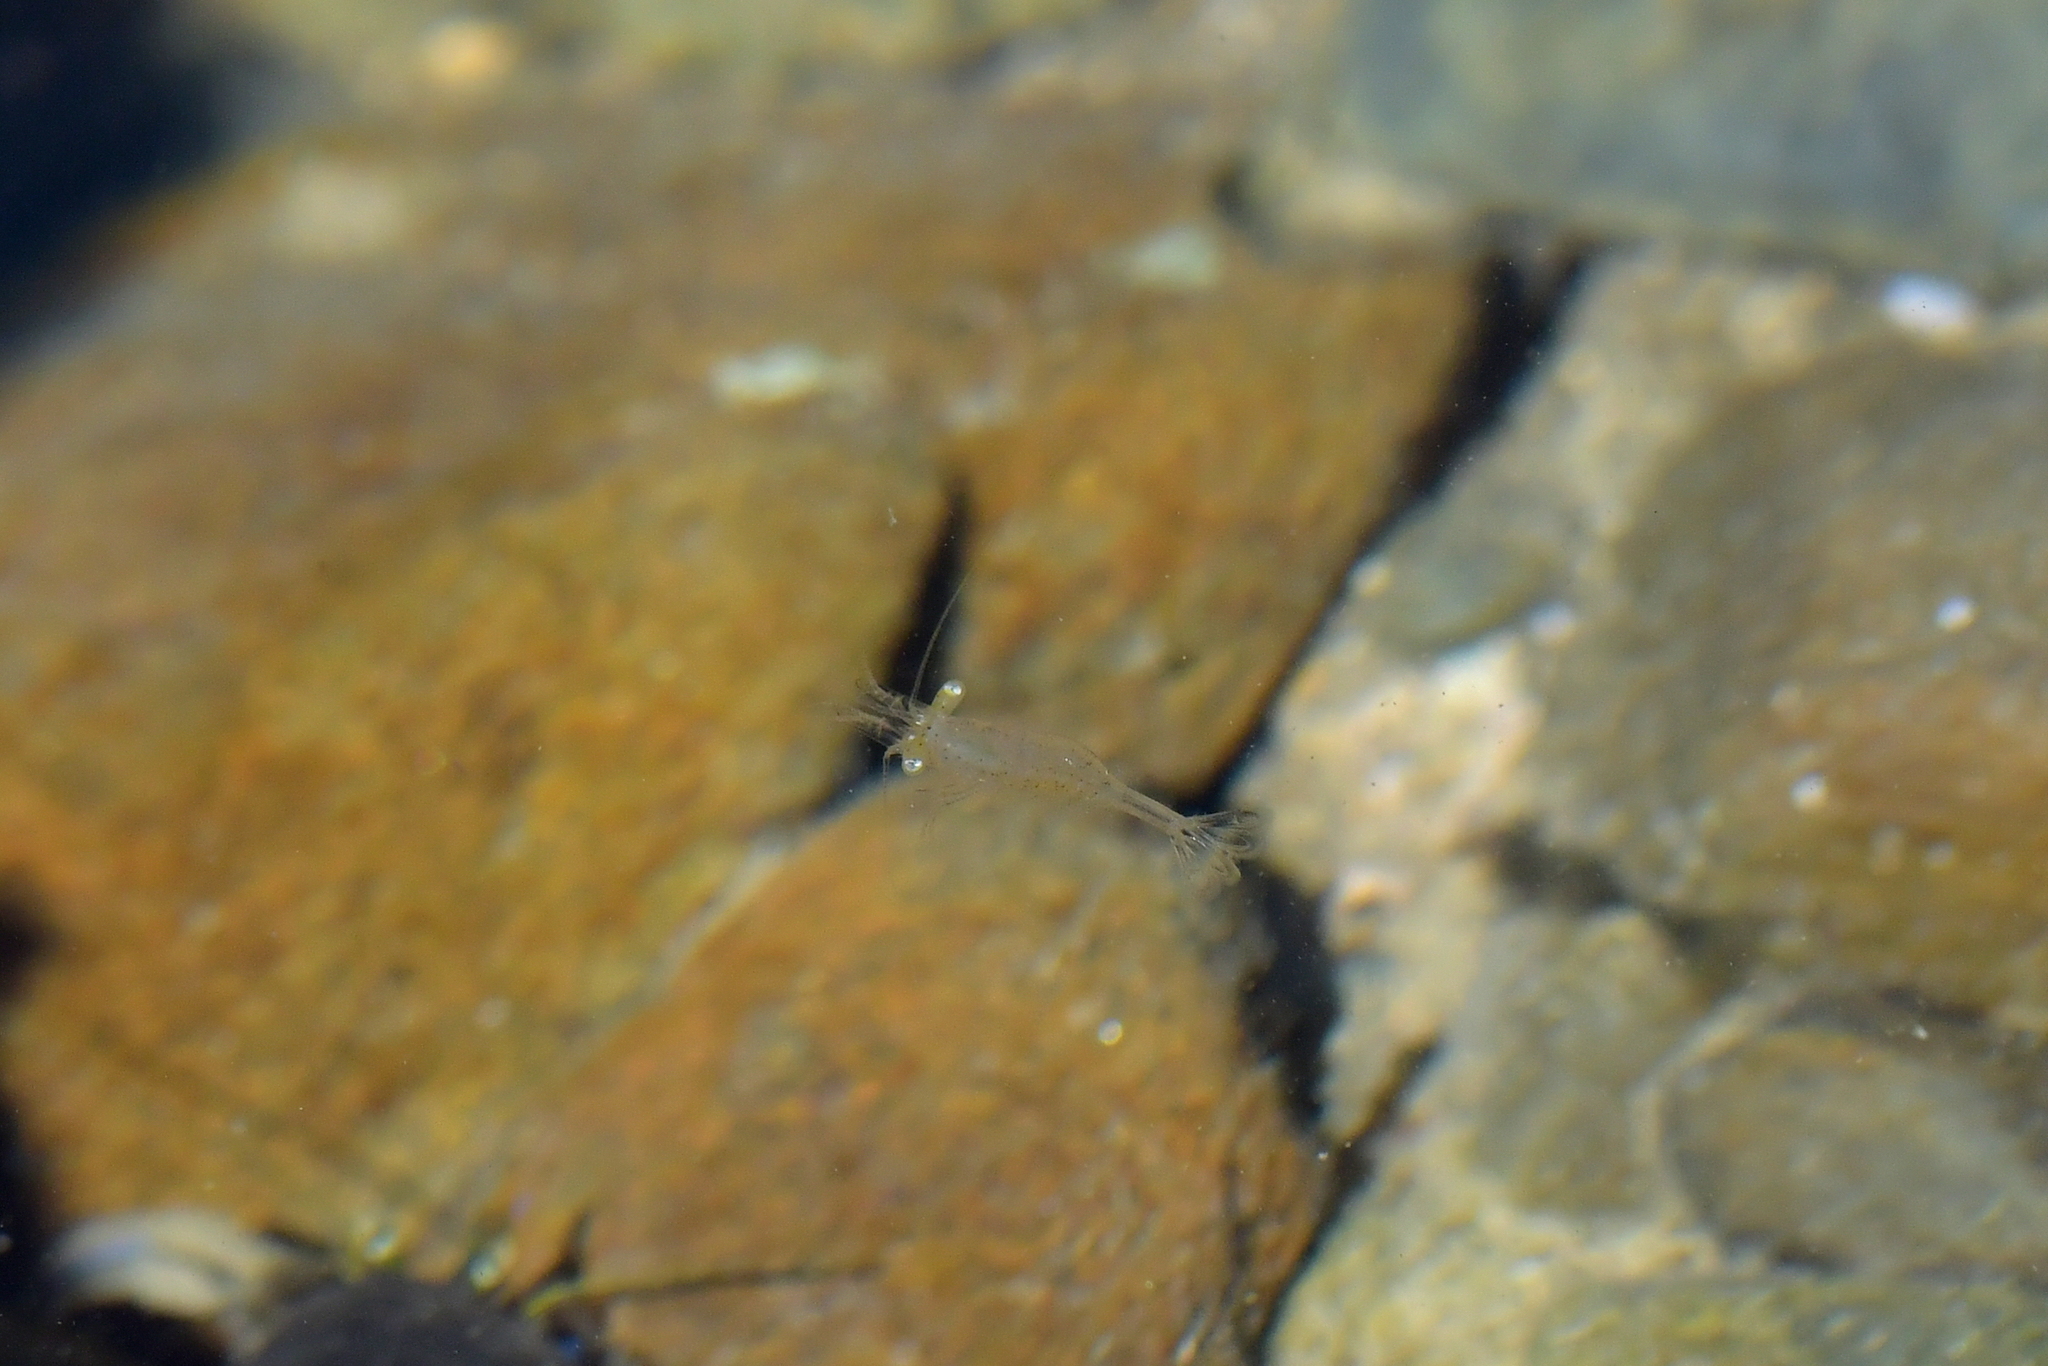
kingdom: Animalia
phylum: Arthropoda
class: Malacostraca
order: Decapoda
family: Palaemonidae
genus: Palaemon
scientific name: Palaemon affinis
